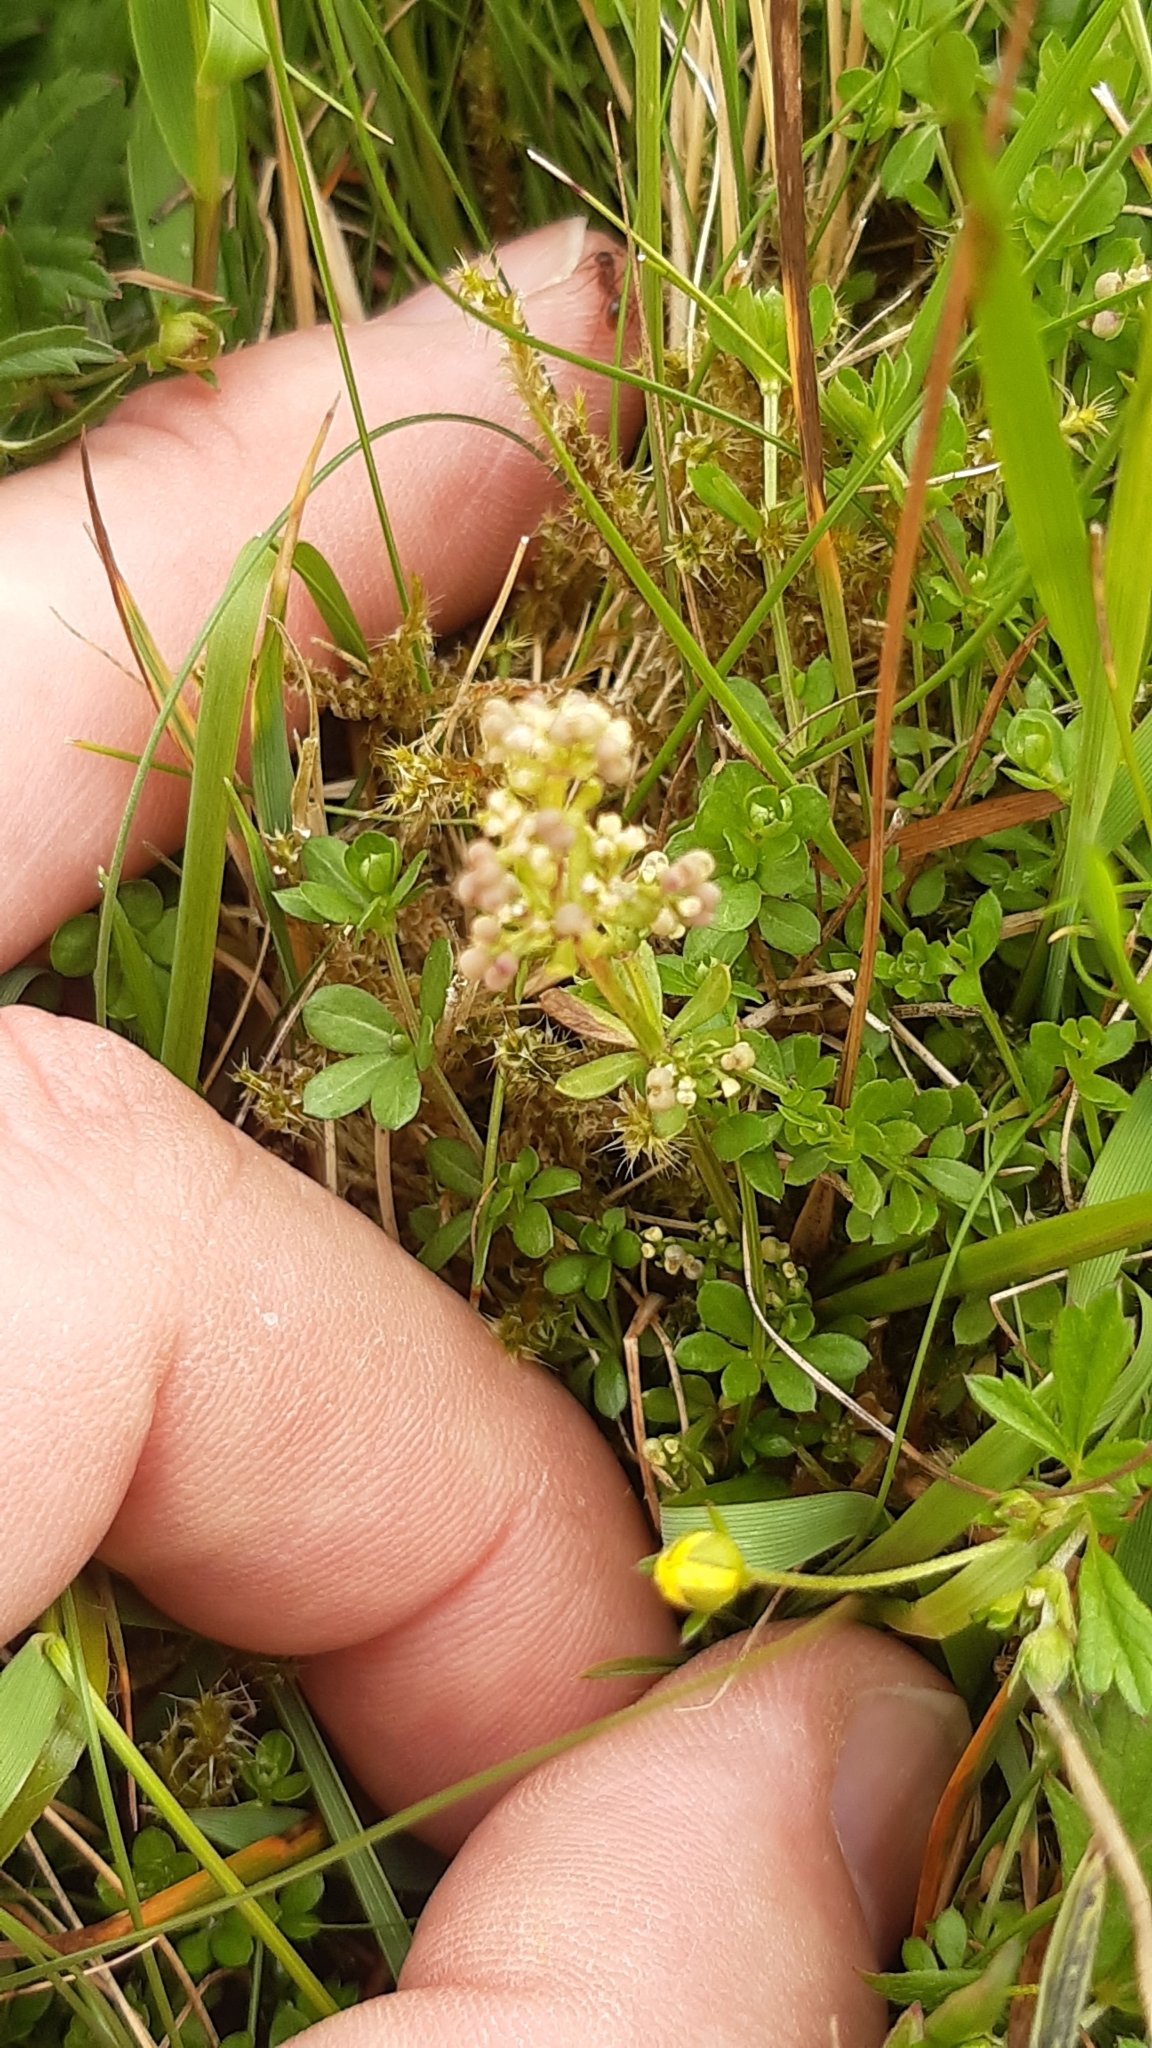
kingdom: Plantae
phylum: Tracheophyta
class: Magnoliopsida
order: Gentianales
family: Rubiaceae
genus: Galium
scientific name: Galium saxatile
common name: Heath bedstraw
